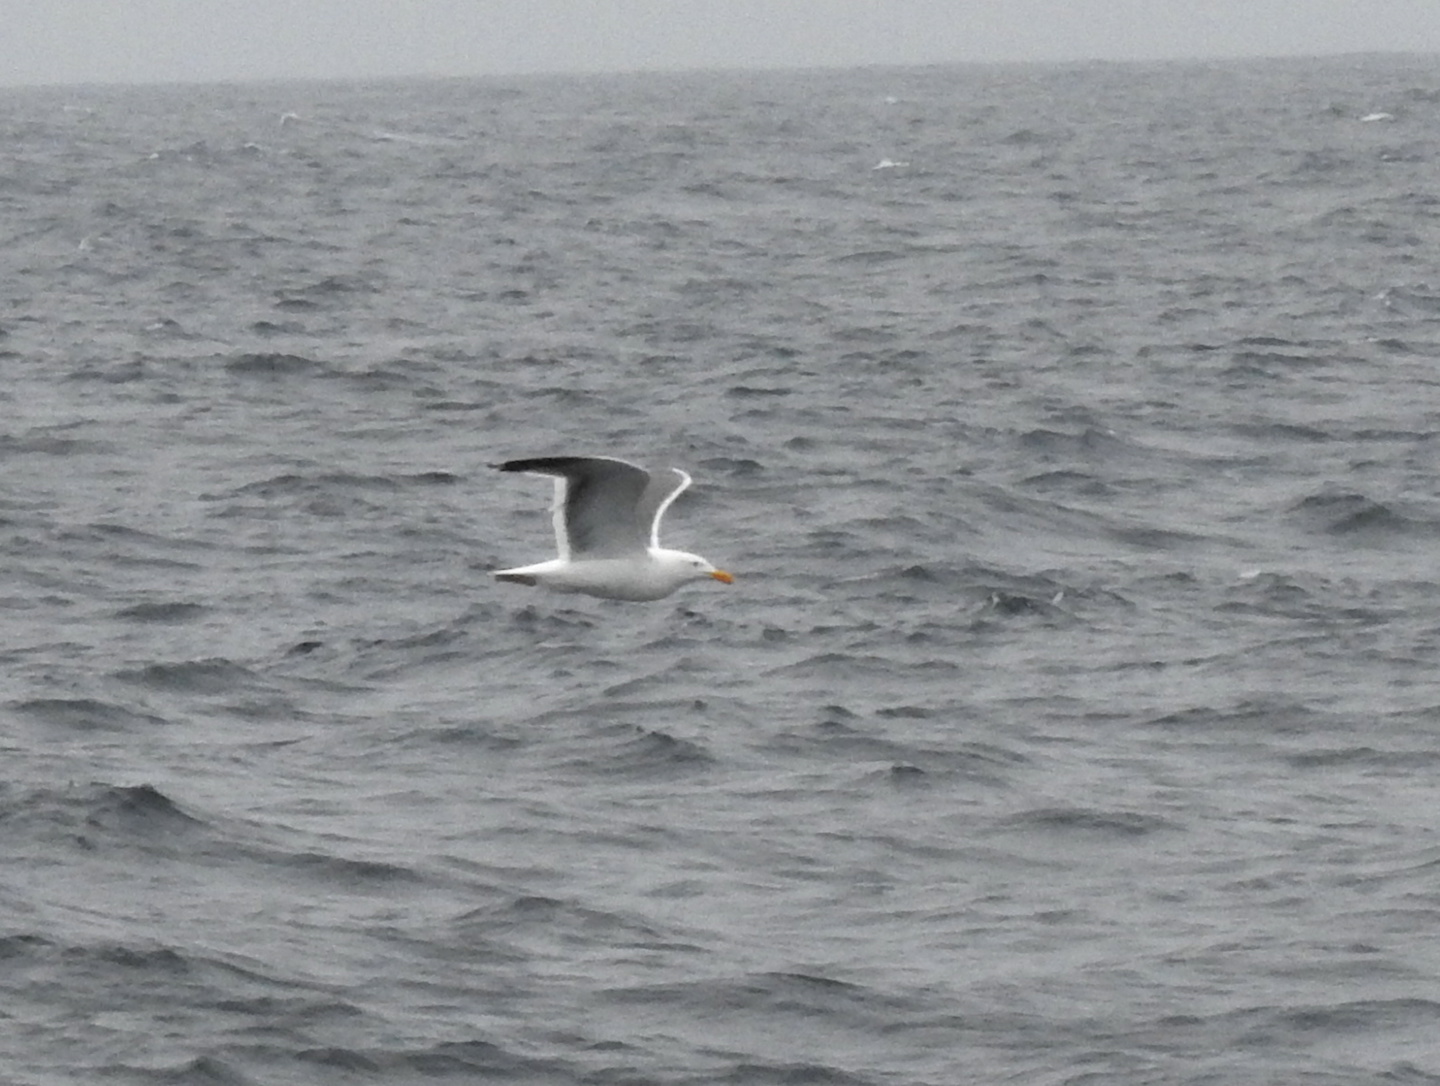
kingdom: Animalia
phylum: Chordata
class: Aves
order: Charadriiformes
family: Laridae
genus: Larus
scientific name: Larus occidentalis
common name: Western gull
